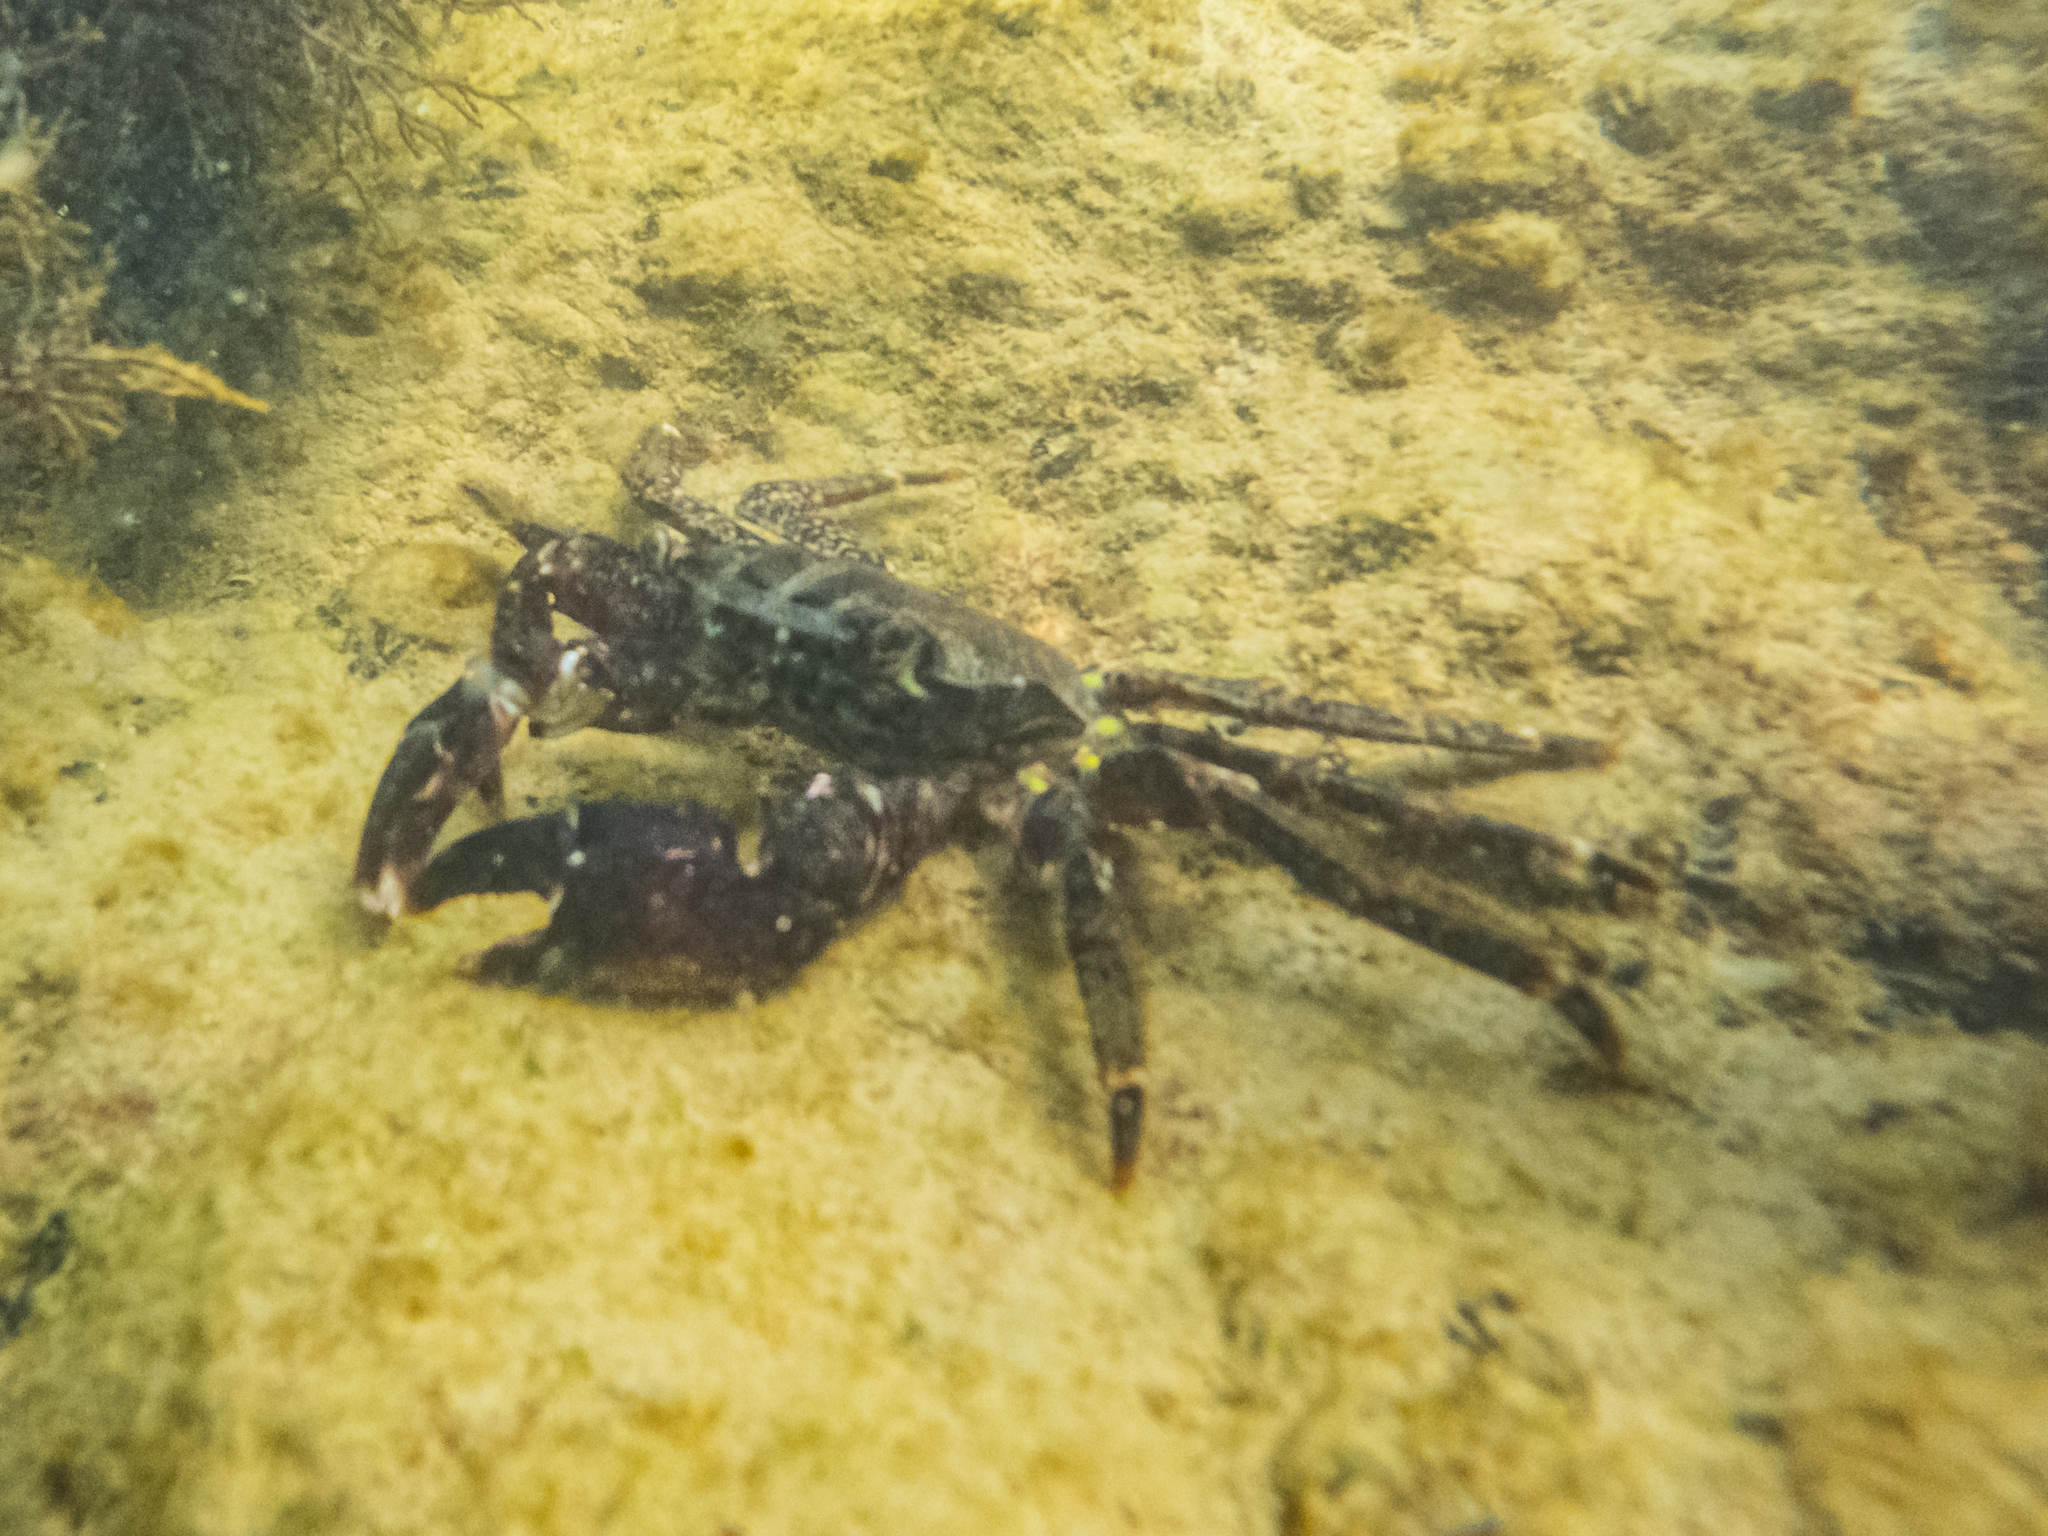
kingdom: Animalia
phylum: Arthropoda
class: Malacostraca
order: Decapoda
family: Grapsidae
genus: Pachygrapsus
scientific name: Pachygrapsus marmoratus
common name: Marbled rock crab
